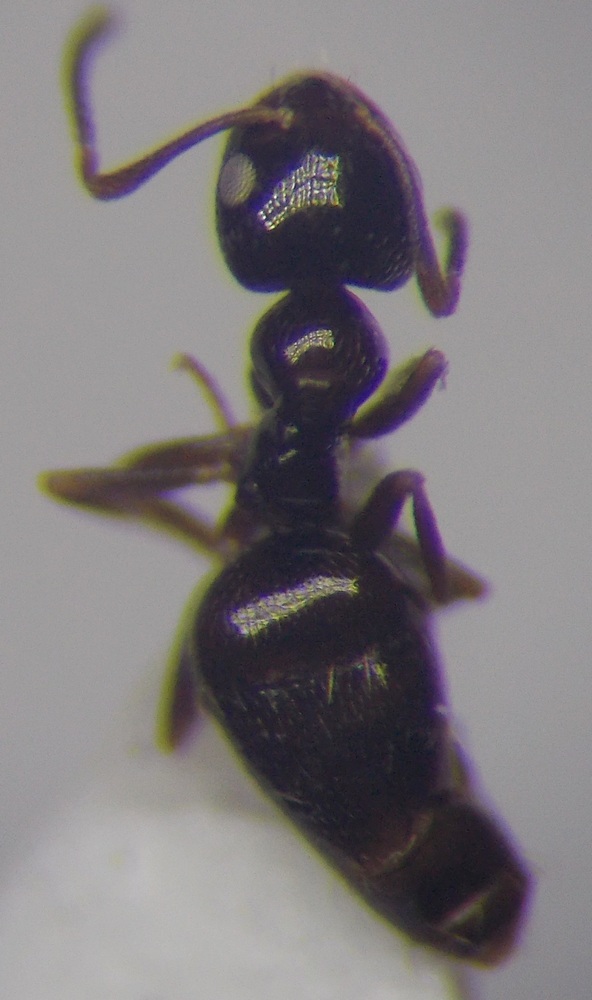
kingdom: Animalia
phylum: Arthropoda
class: Insecta
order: Hymenoptera
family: Formicidae
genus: Plagiolepis
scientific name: Plagiolepis pallescens
